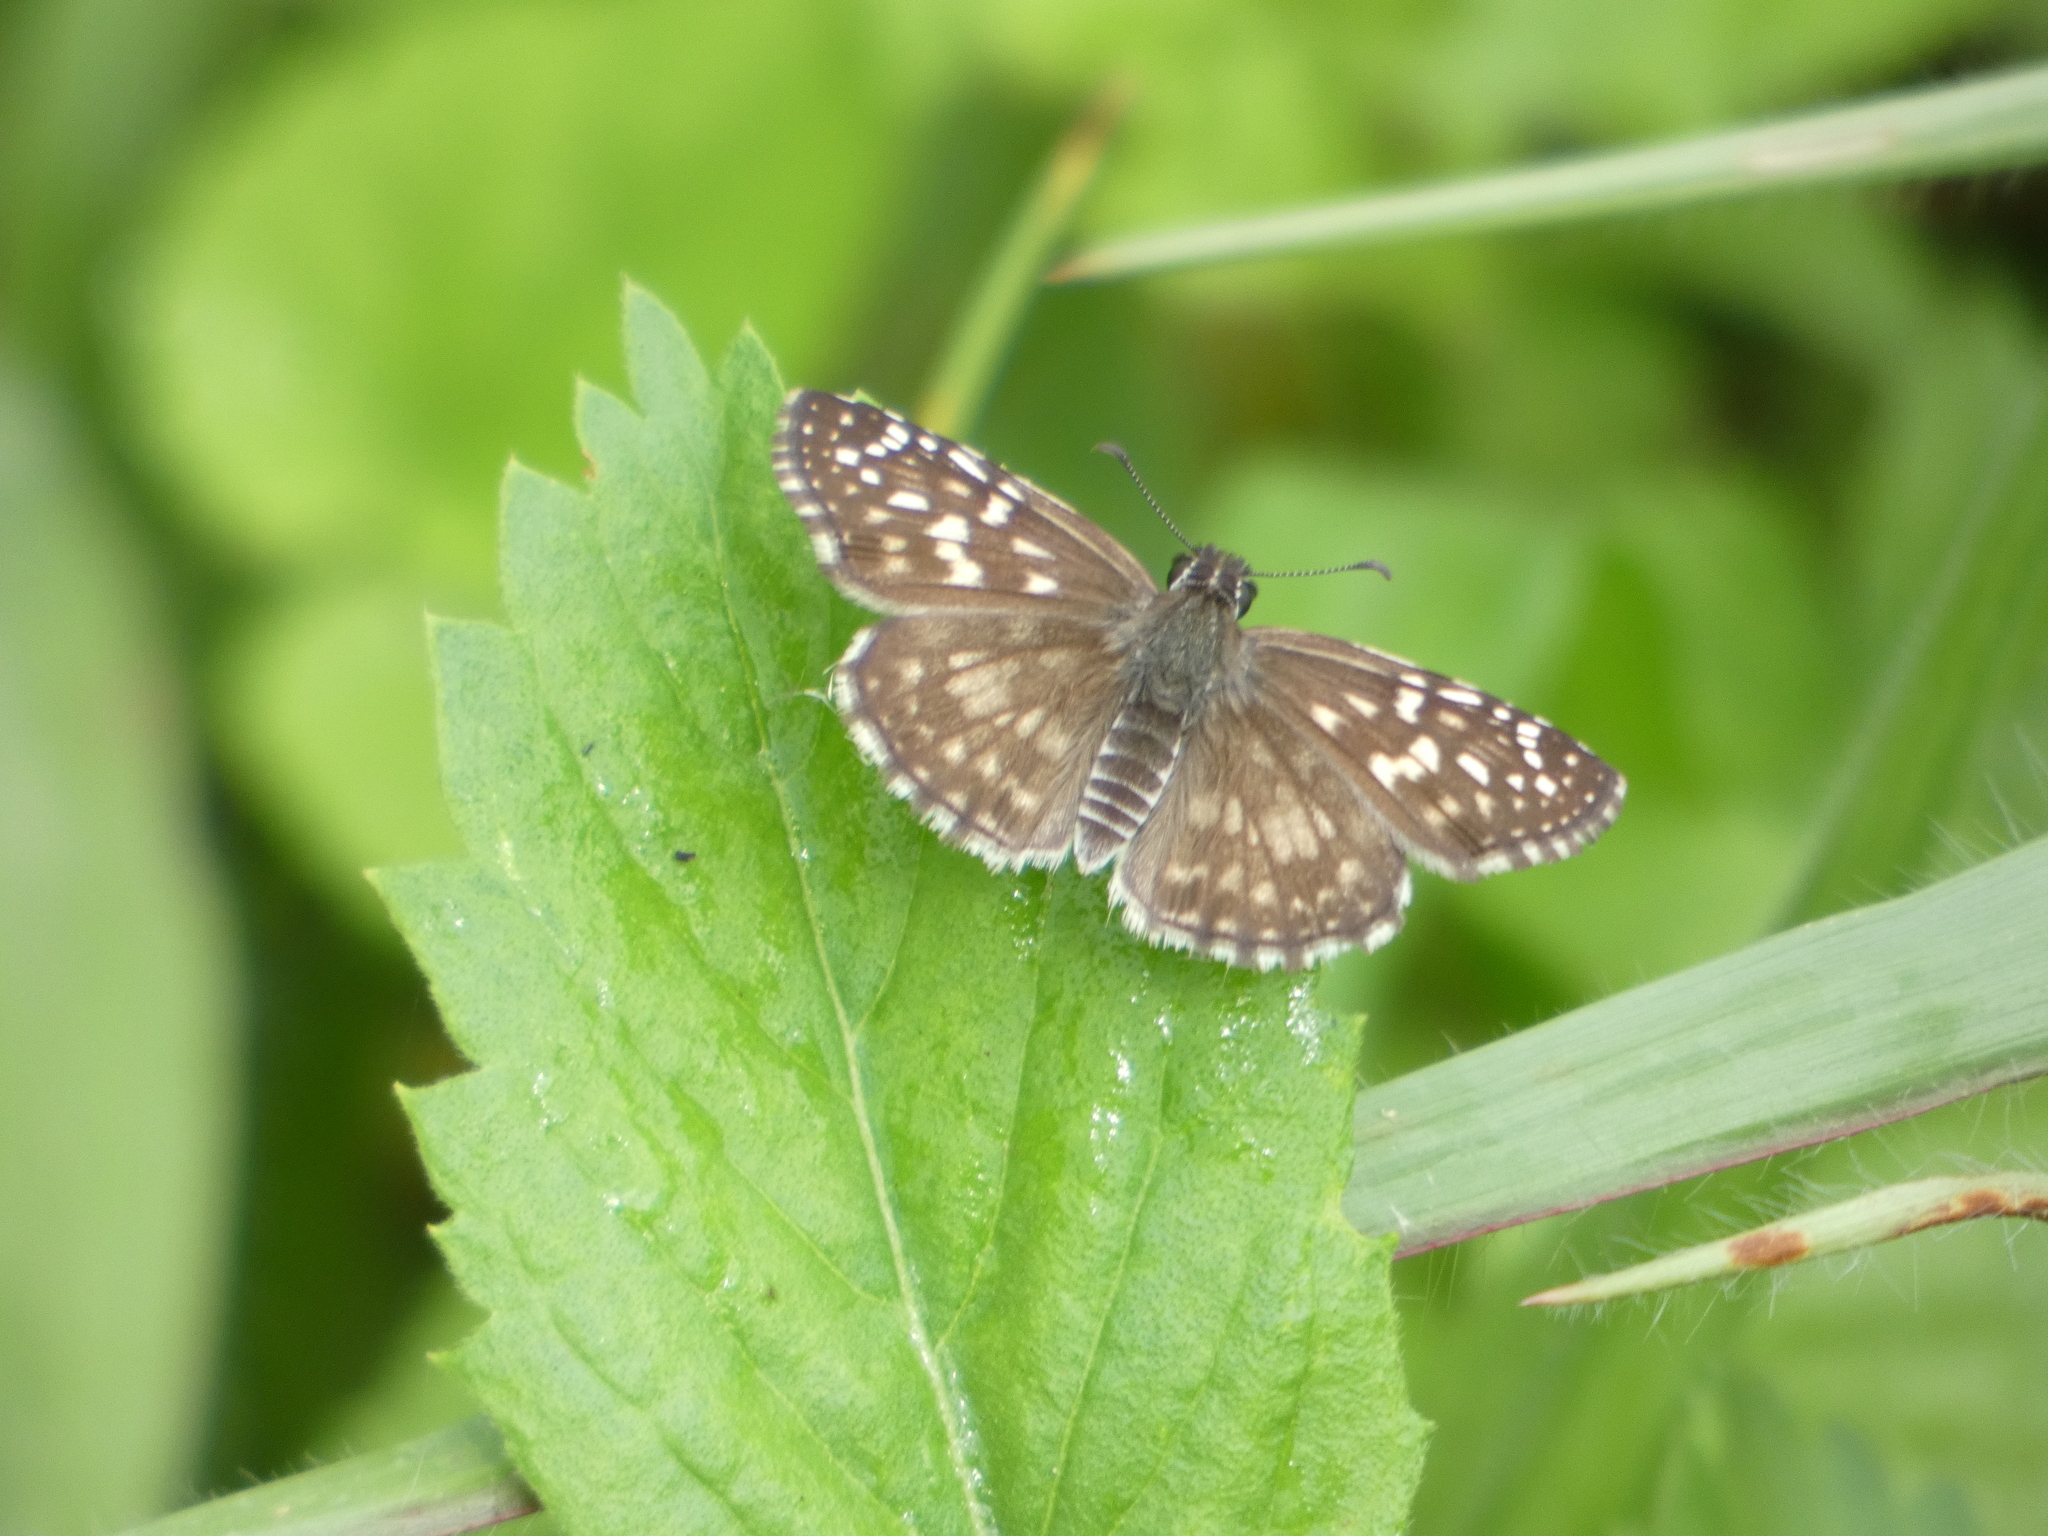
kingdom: Animalia
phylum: Arthropoda
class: Insecta
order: Lepidoptera
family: Hesperiidae
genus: Pyrgus
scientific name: Pyrgus oileus
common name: Tropical checkered-skipper
